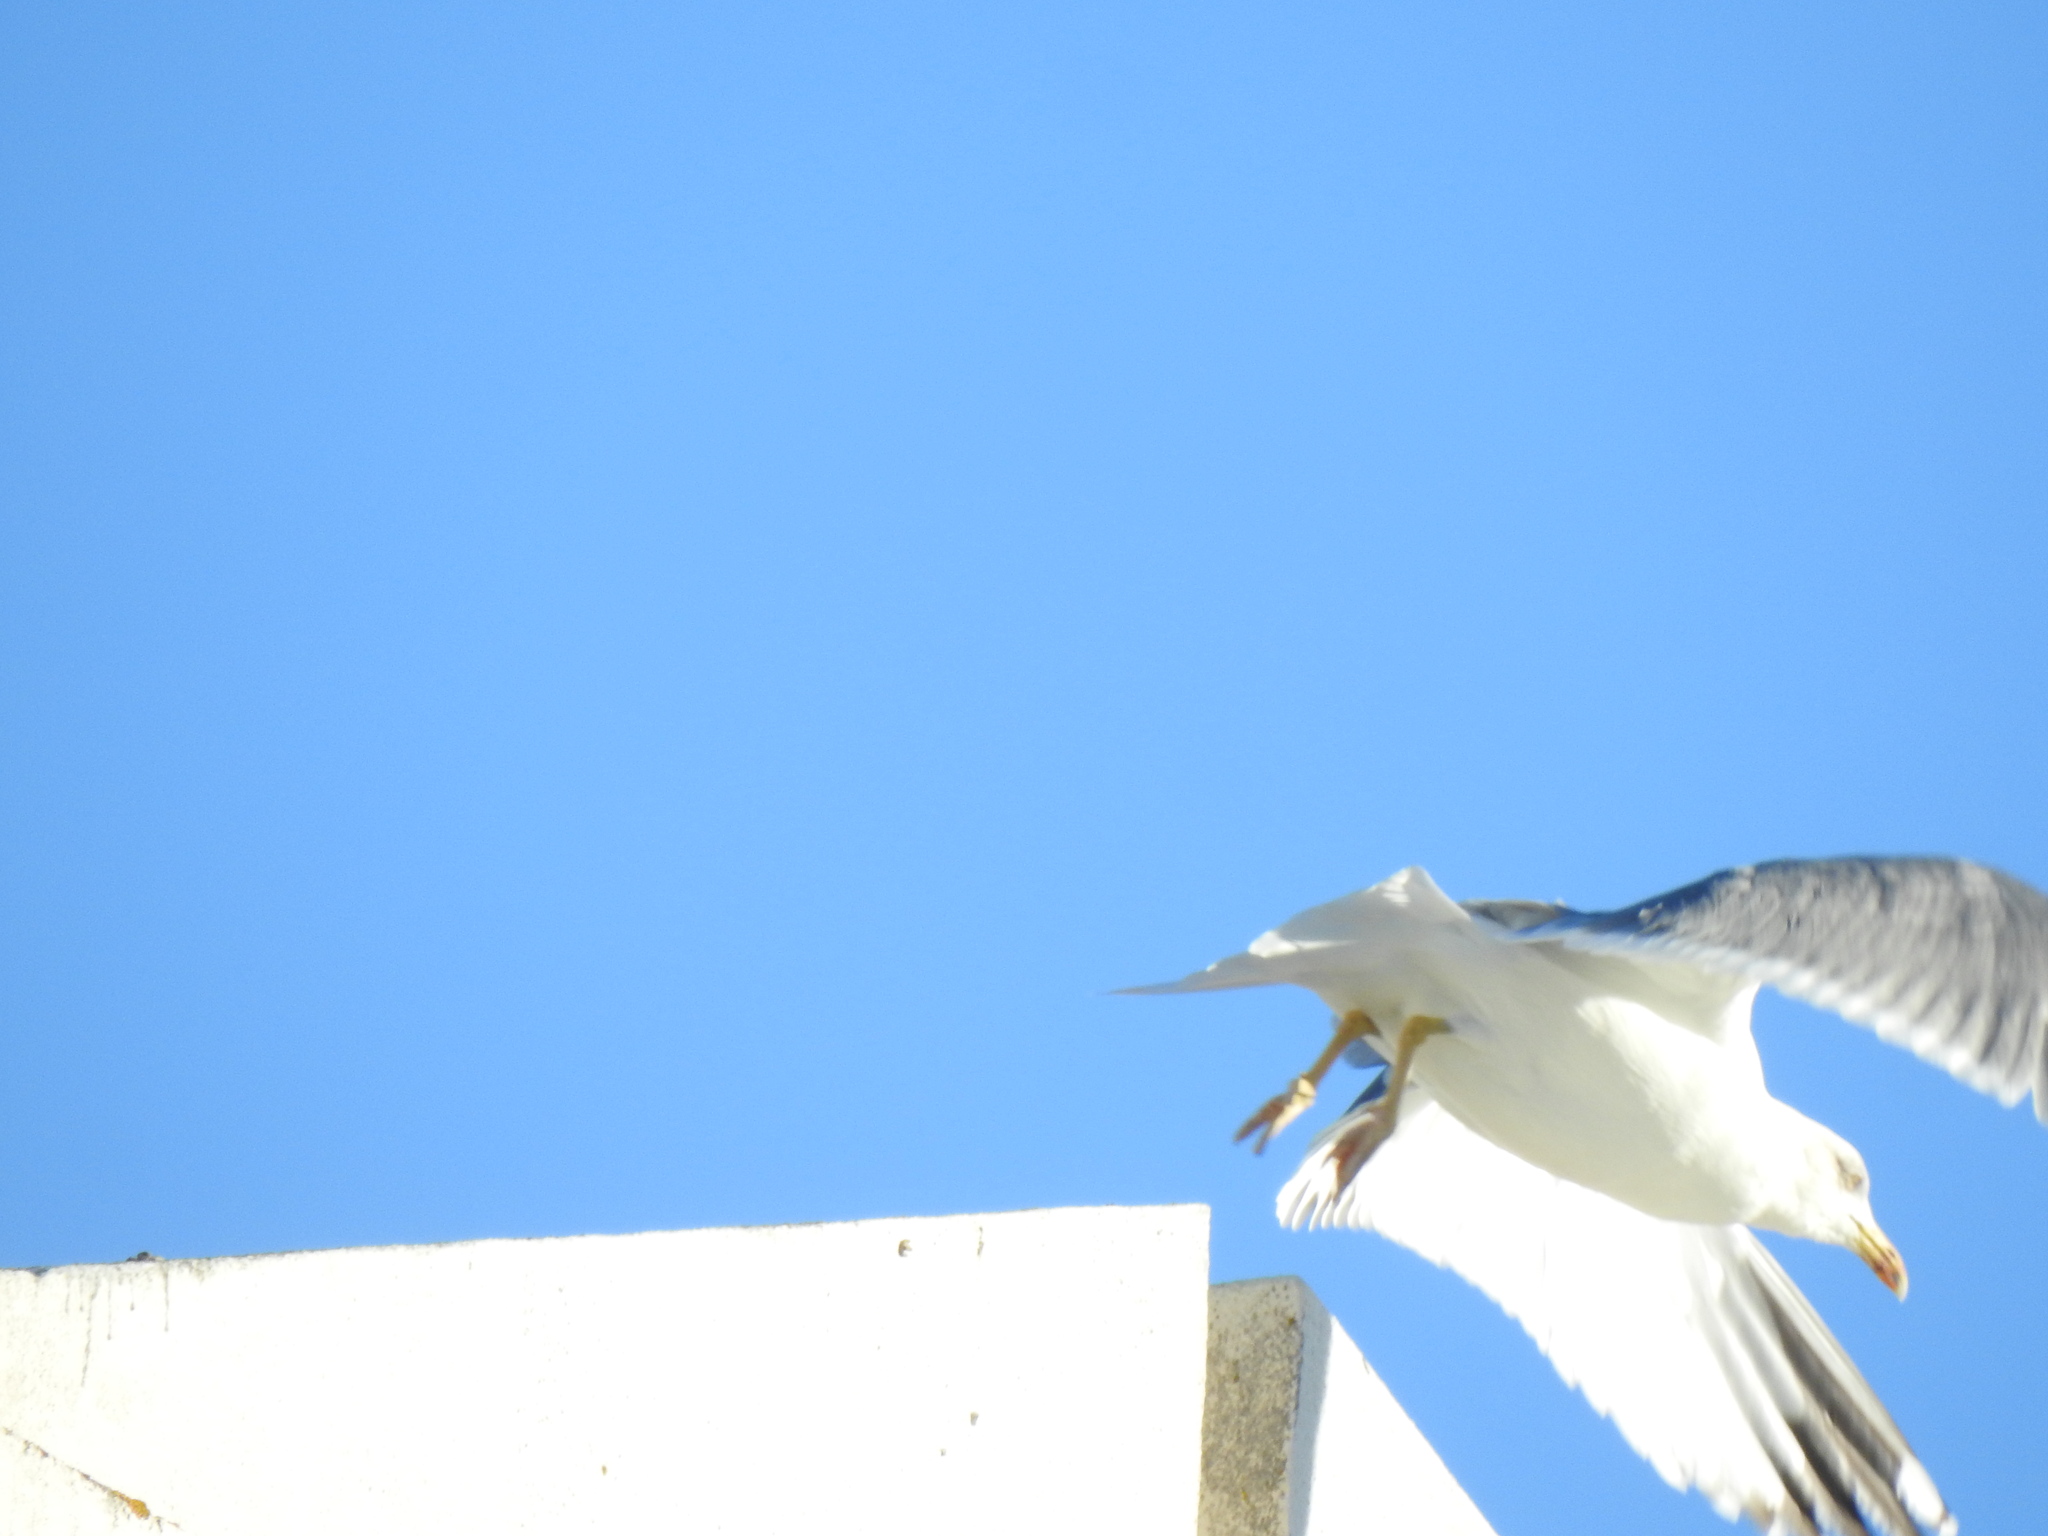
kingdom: Animalia
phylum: Chordata
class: Aves
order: Charadriiformes
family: Laridae
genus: Larus
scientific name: Larus michahellis
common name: Yellow-legged gull
